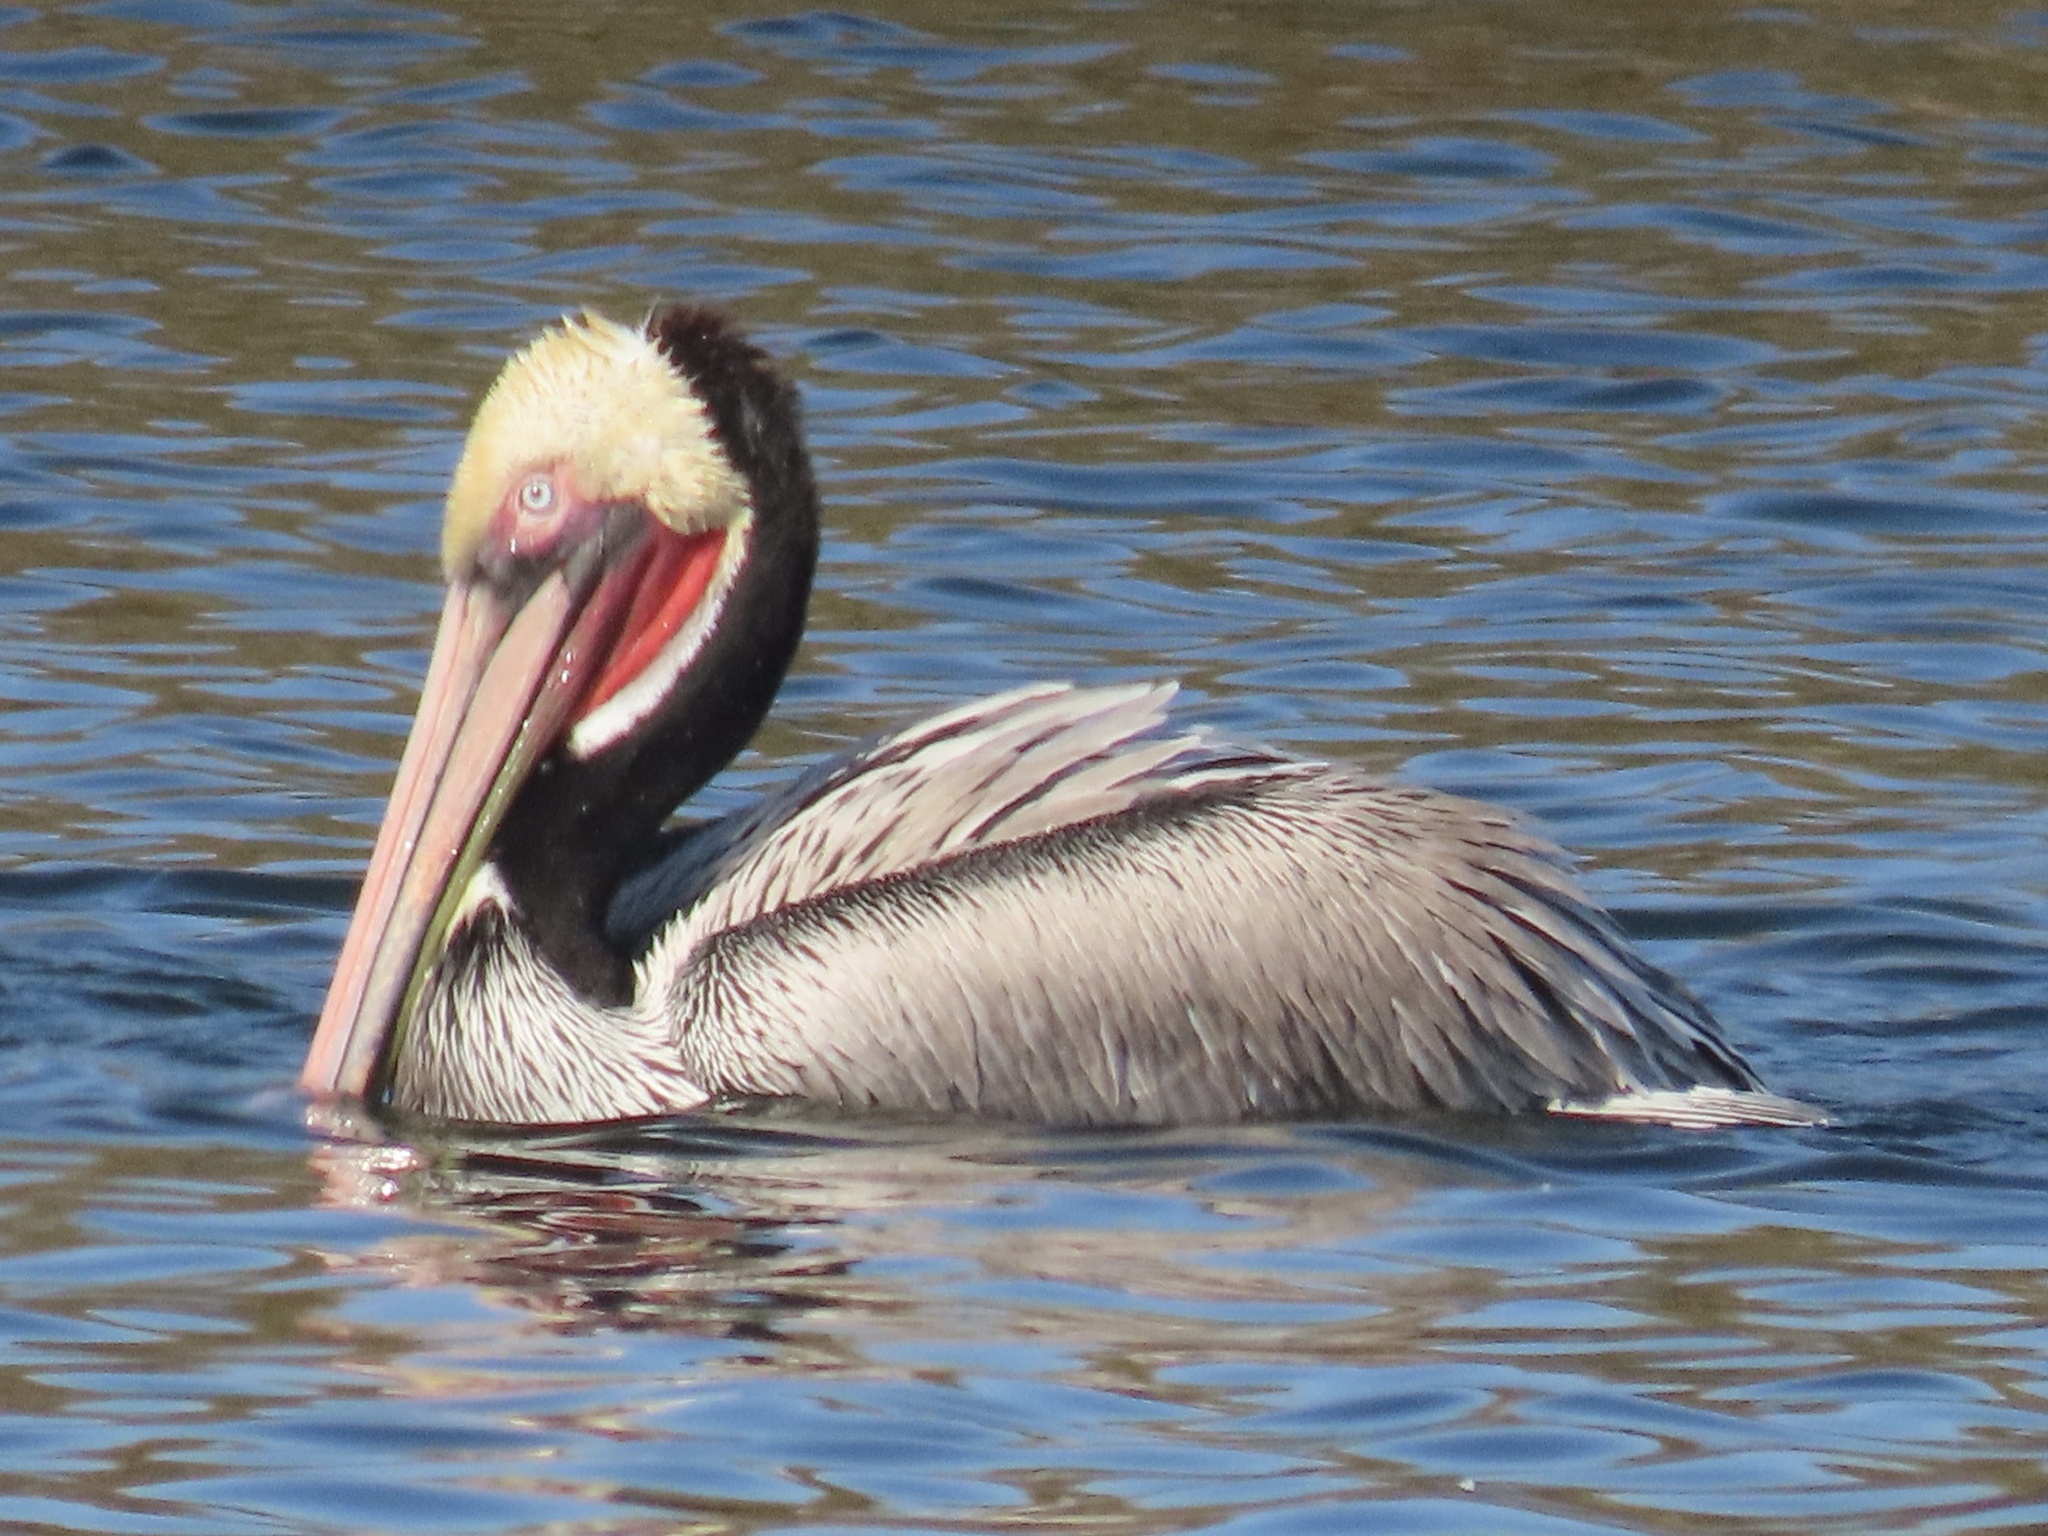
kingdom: Animalia
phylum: Chordata
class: Aves
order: Pelecaniformes
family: Pelecanidae
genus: Pelecanus
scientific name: Pelecanus occidentalis
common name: Brown pelican
